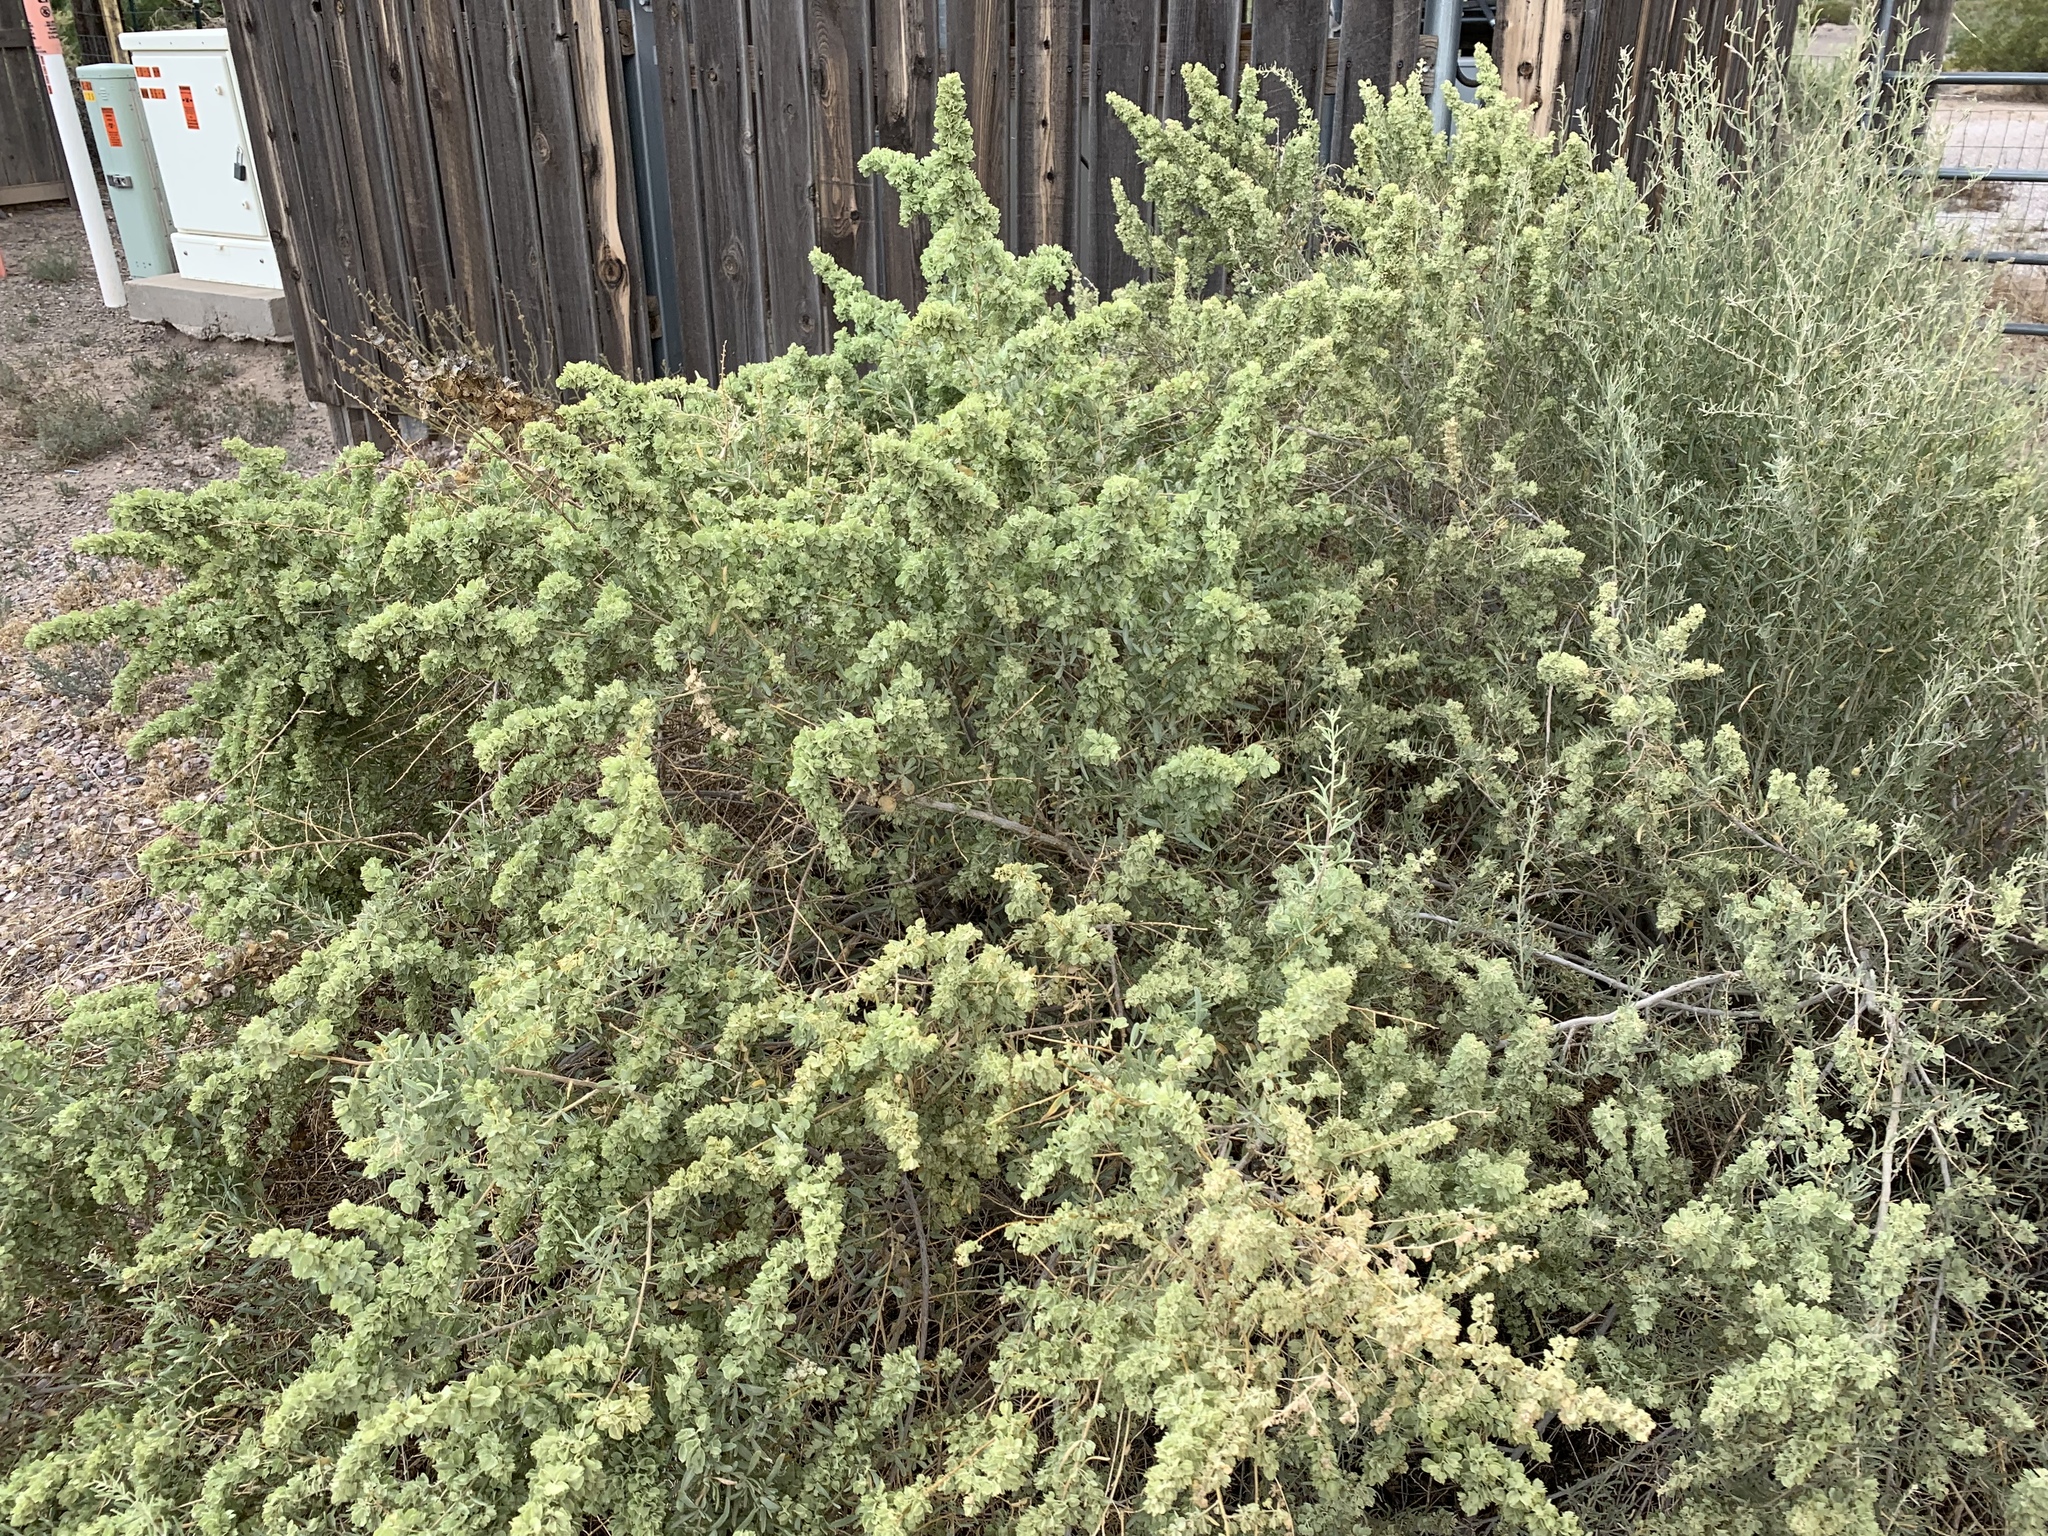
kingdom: Plantae
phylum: Tracheophyta
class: Magnoliopsida
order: Caryophyllales
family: Amaranthaceae
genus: Atriplex
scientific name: Atriplex canescens
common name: Four-wing saltbush
